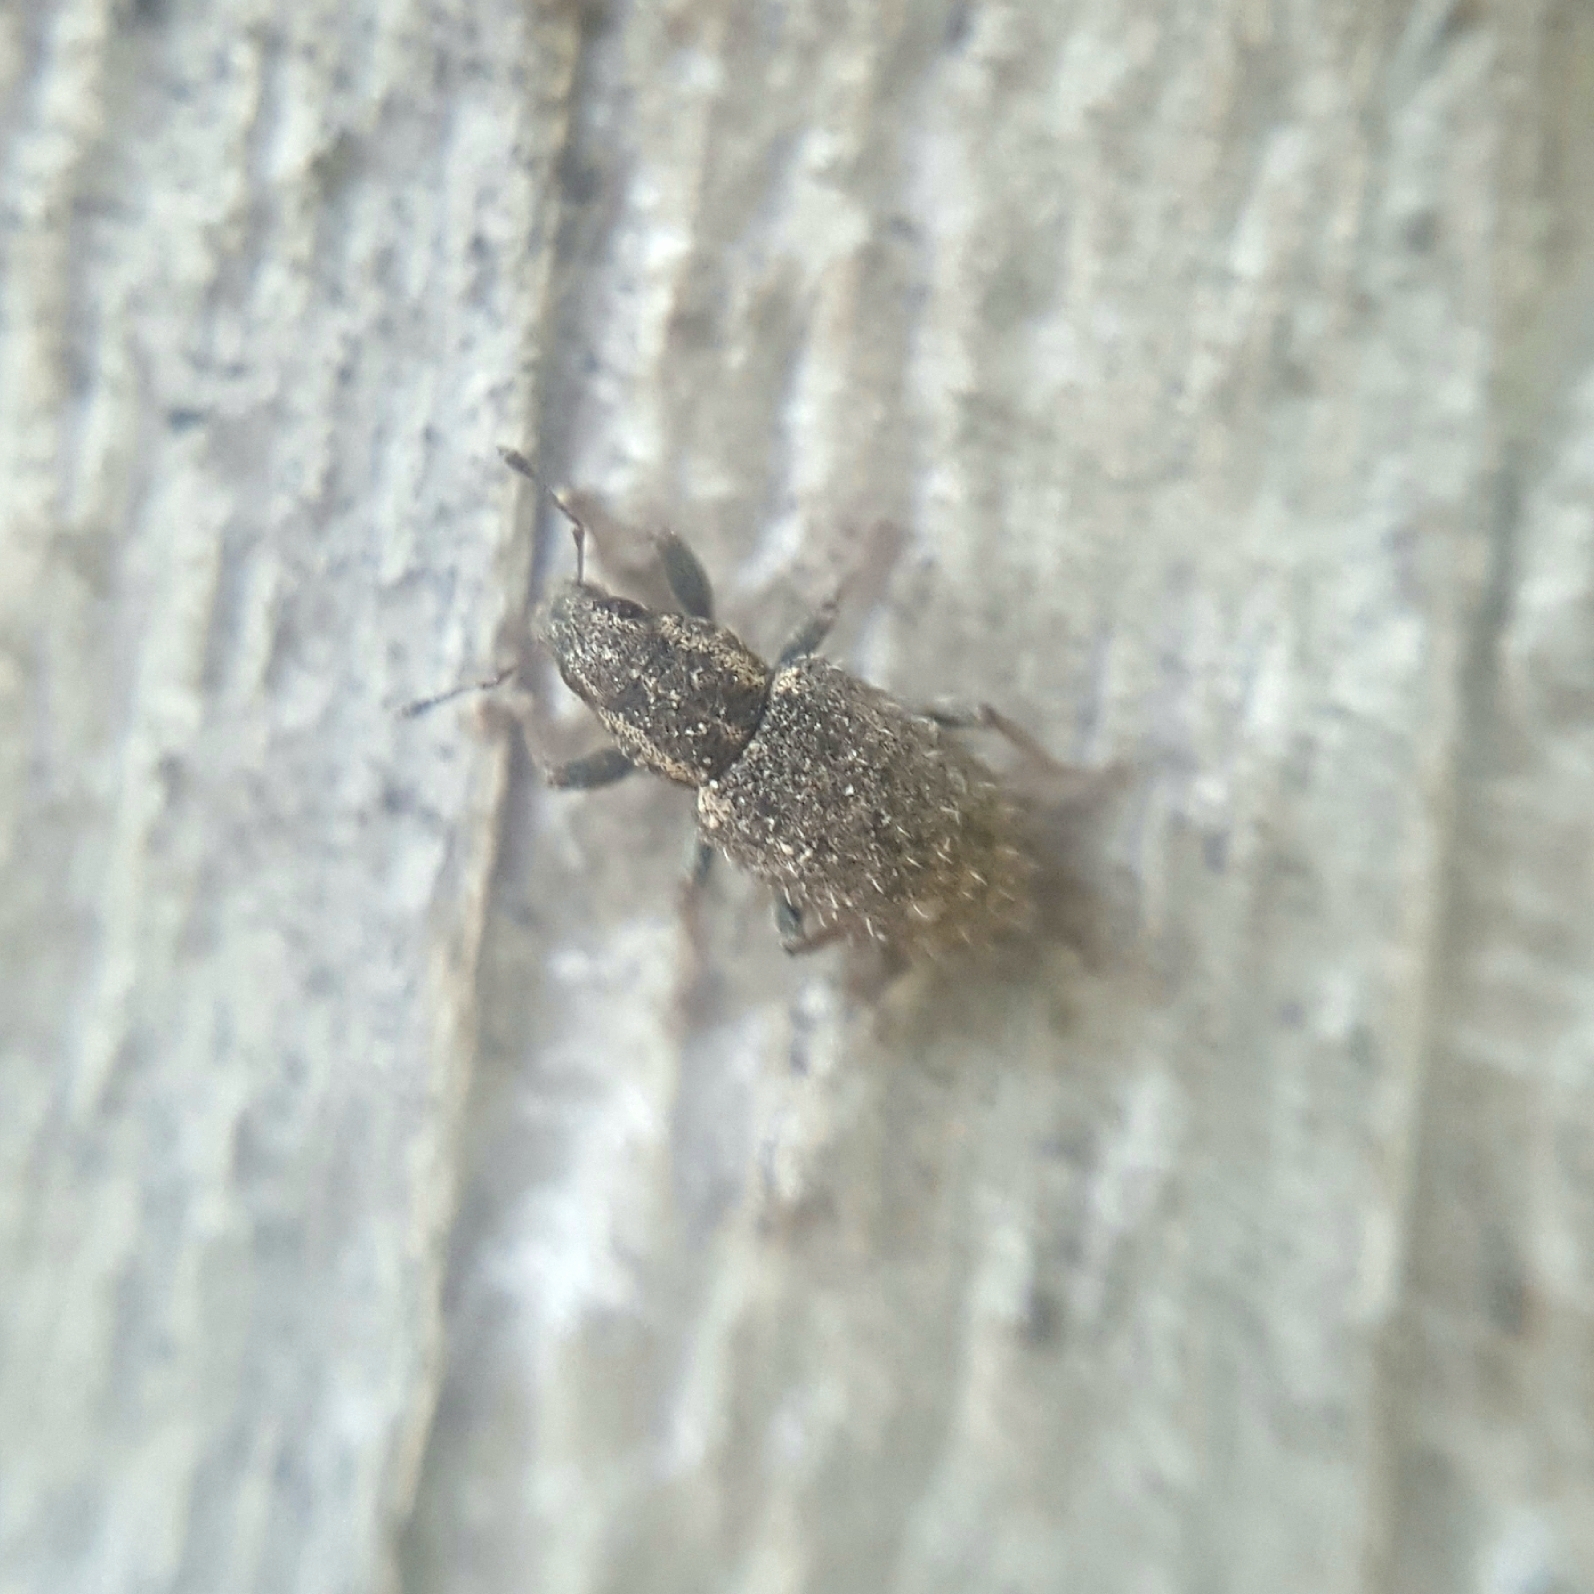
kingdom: Animalia
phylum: Arthropoda
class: Insecta
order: Coleoptera
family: Curculionidae
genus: Sitona
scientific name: Sitona hispidulus
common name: Clover weevil
